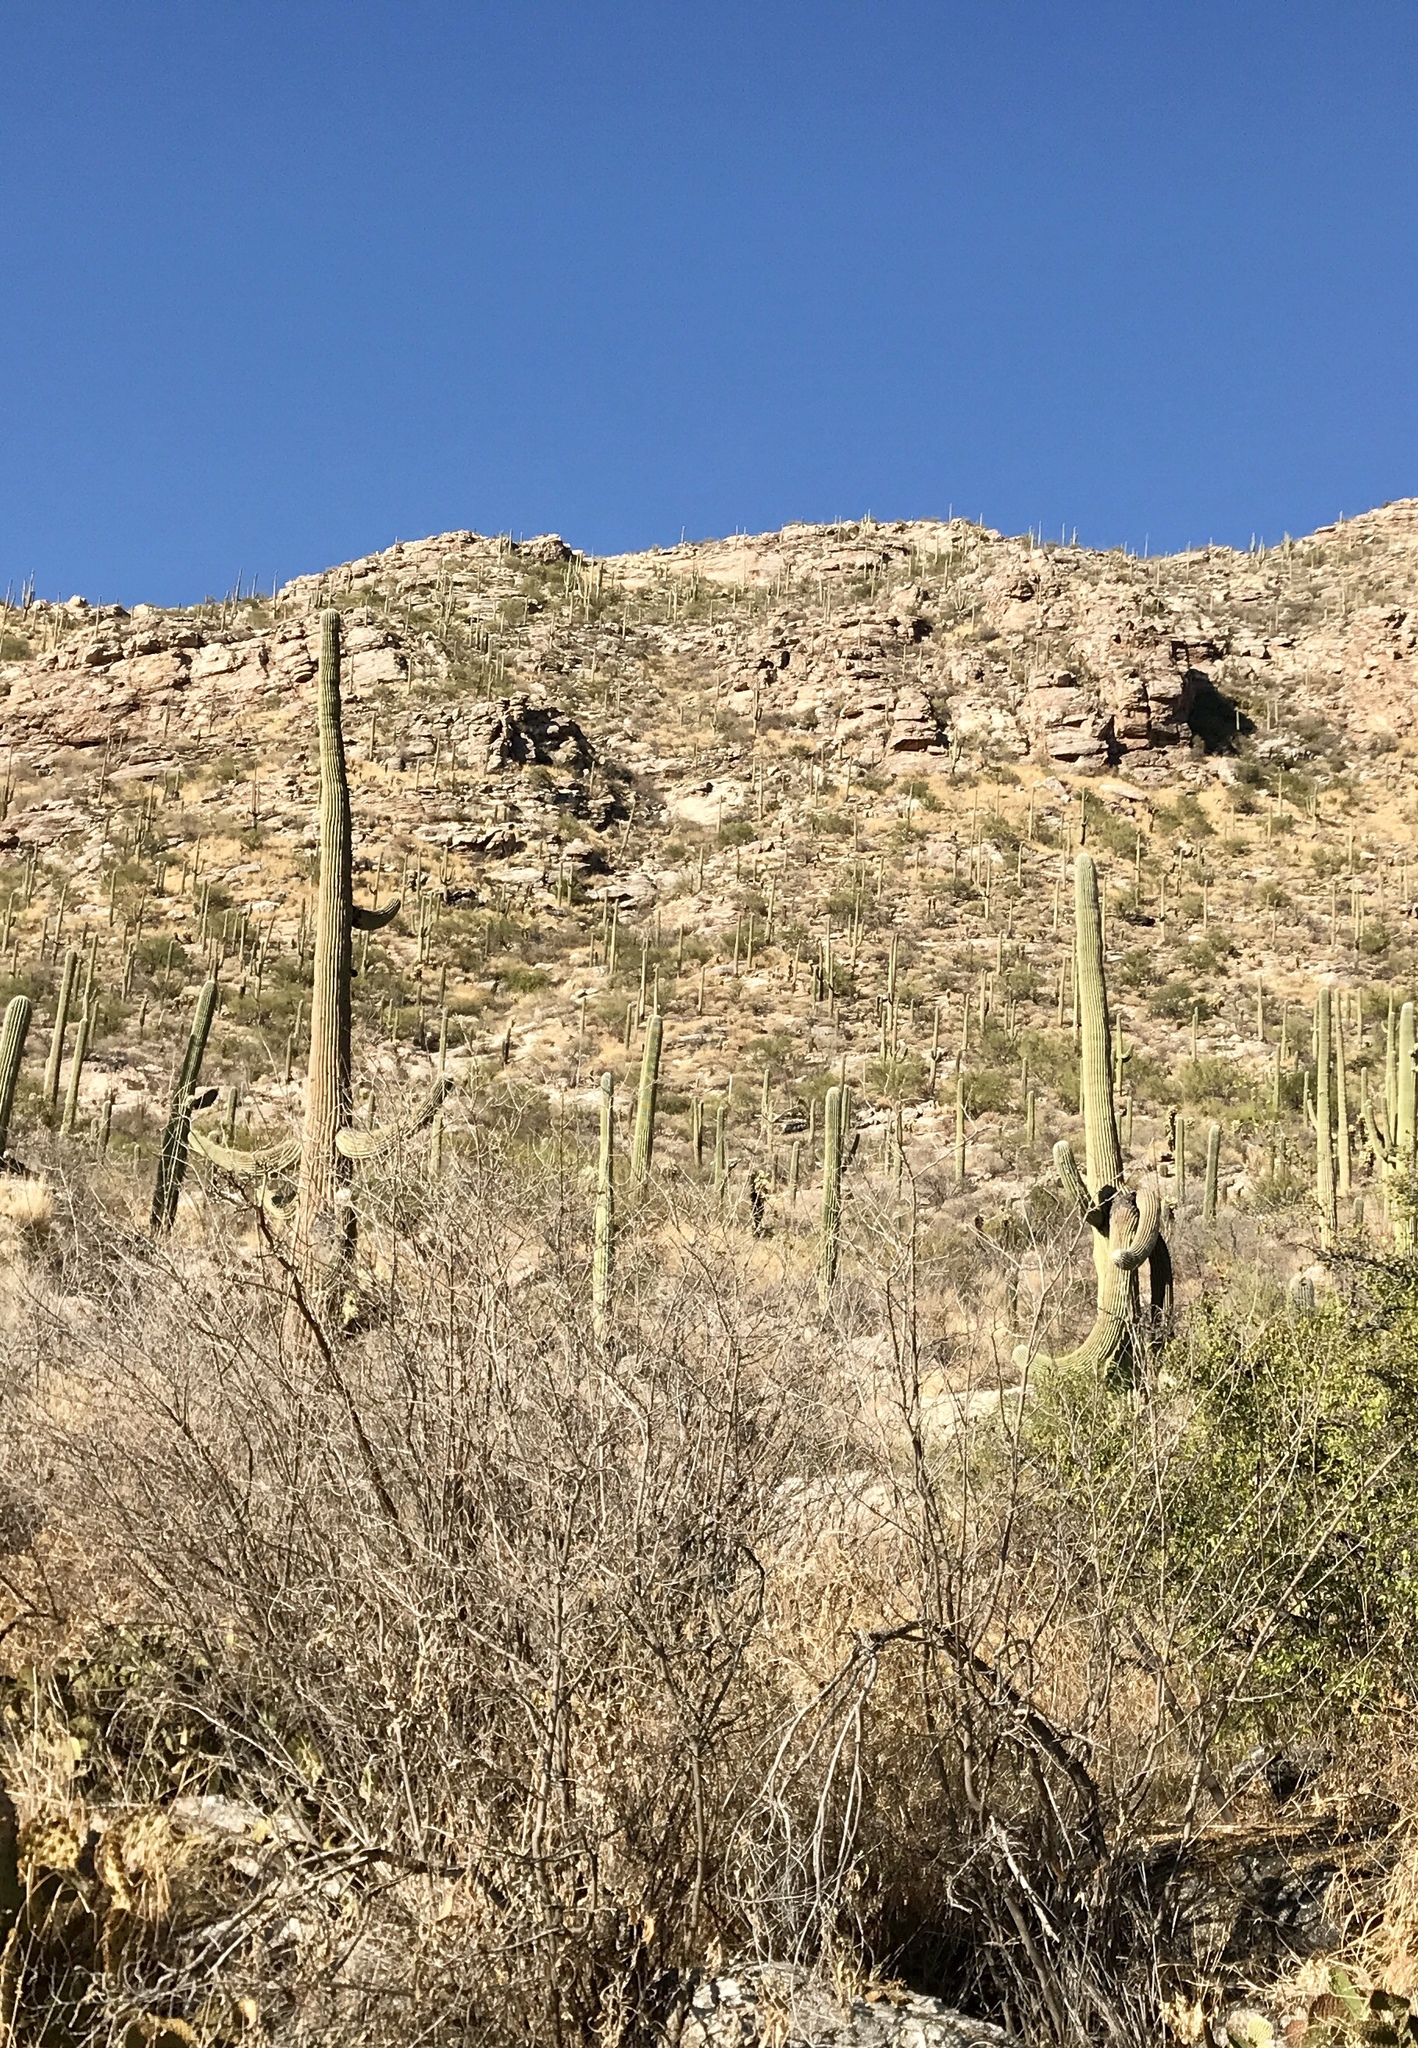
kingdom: Plantae
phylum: Tracheophyta
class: Magnoliopsida
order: Caryophyllales
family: Cactaceae
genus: Carnegiea
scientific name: Carnegiea gigantea
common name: Saguaro
